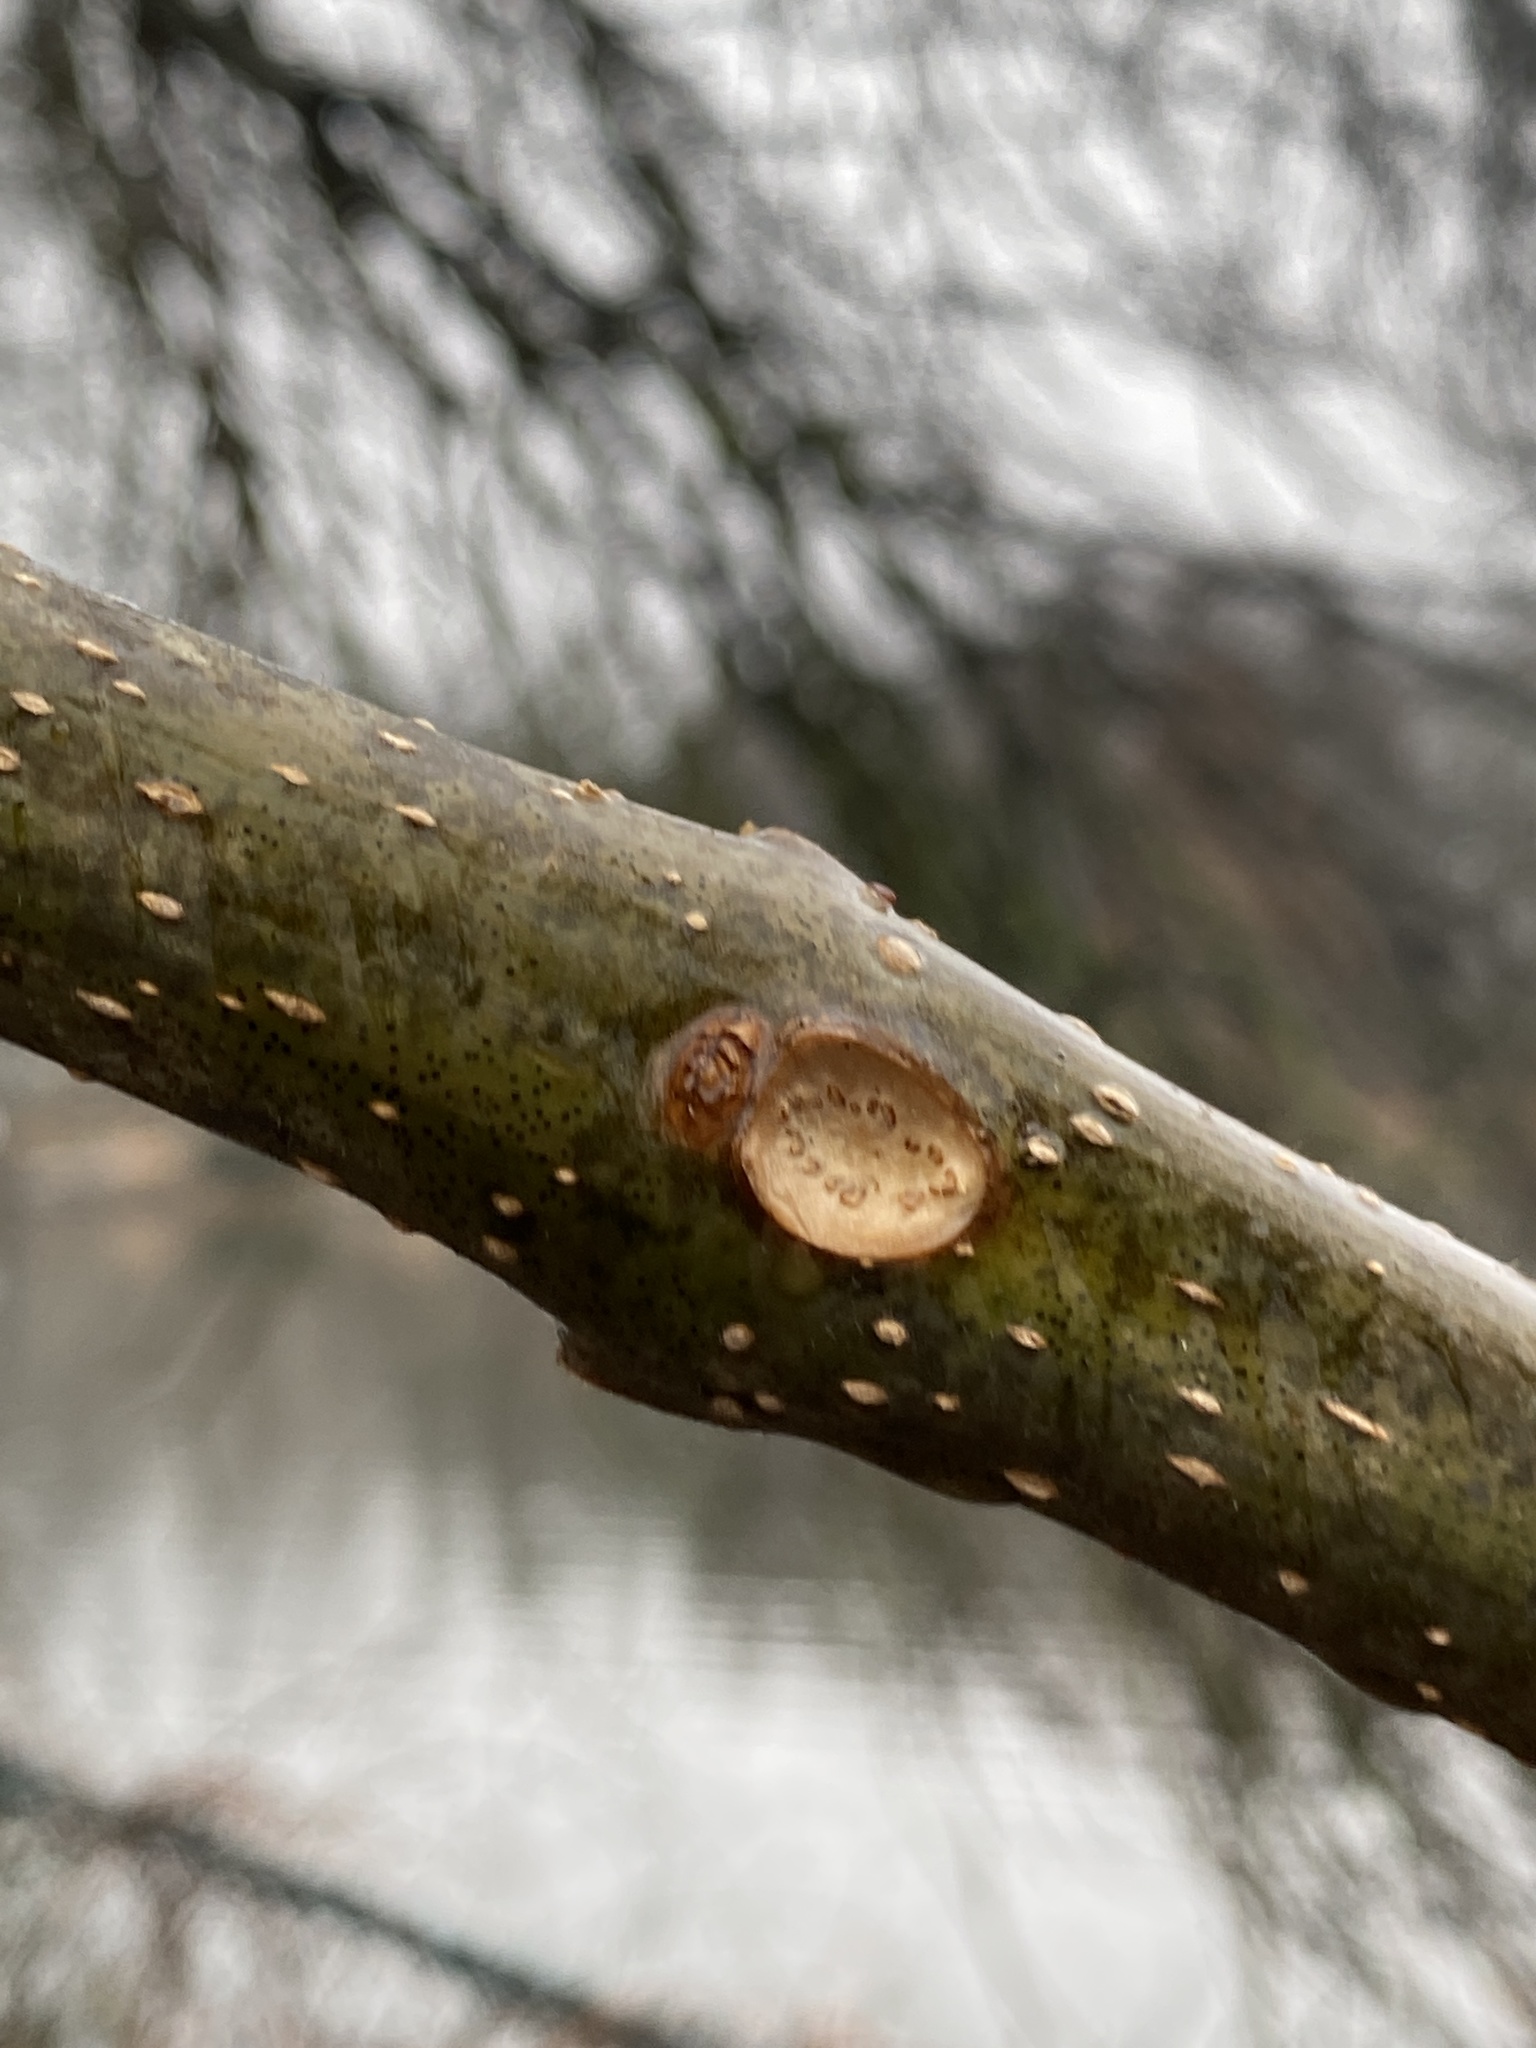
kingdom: Plantae
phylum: Tracheophyta
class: Magnoliopsida
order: Lamiales
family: Bignoniaceae
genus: Catalpa
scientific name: Catalpa
